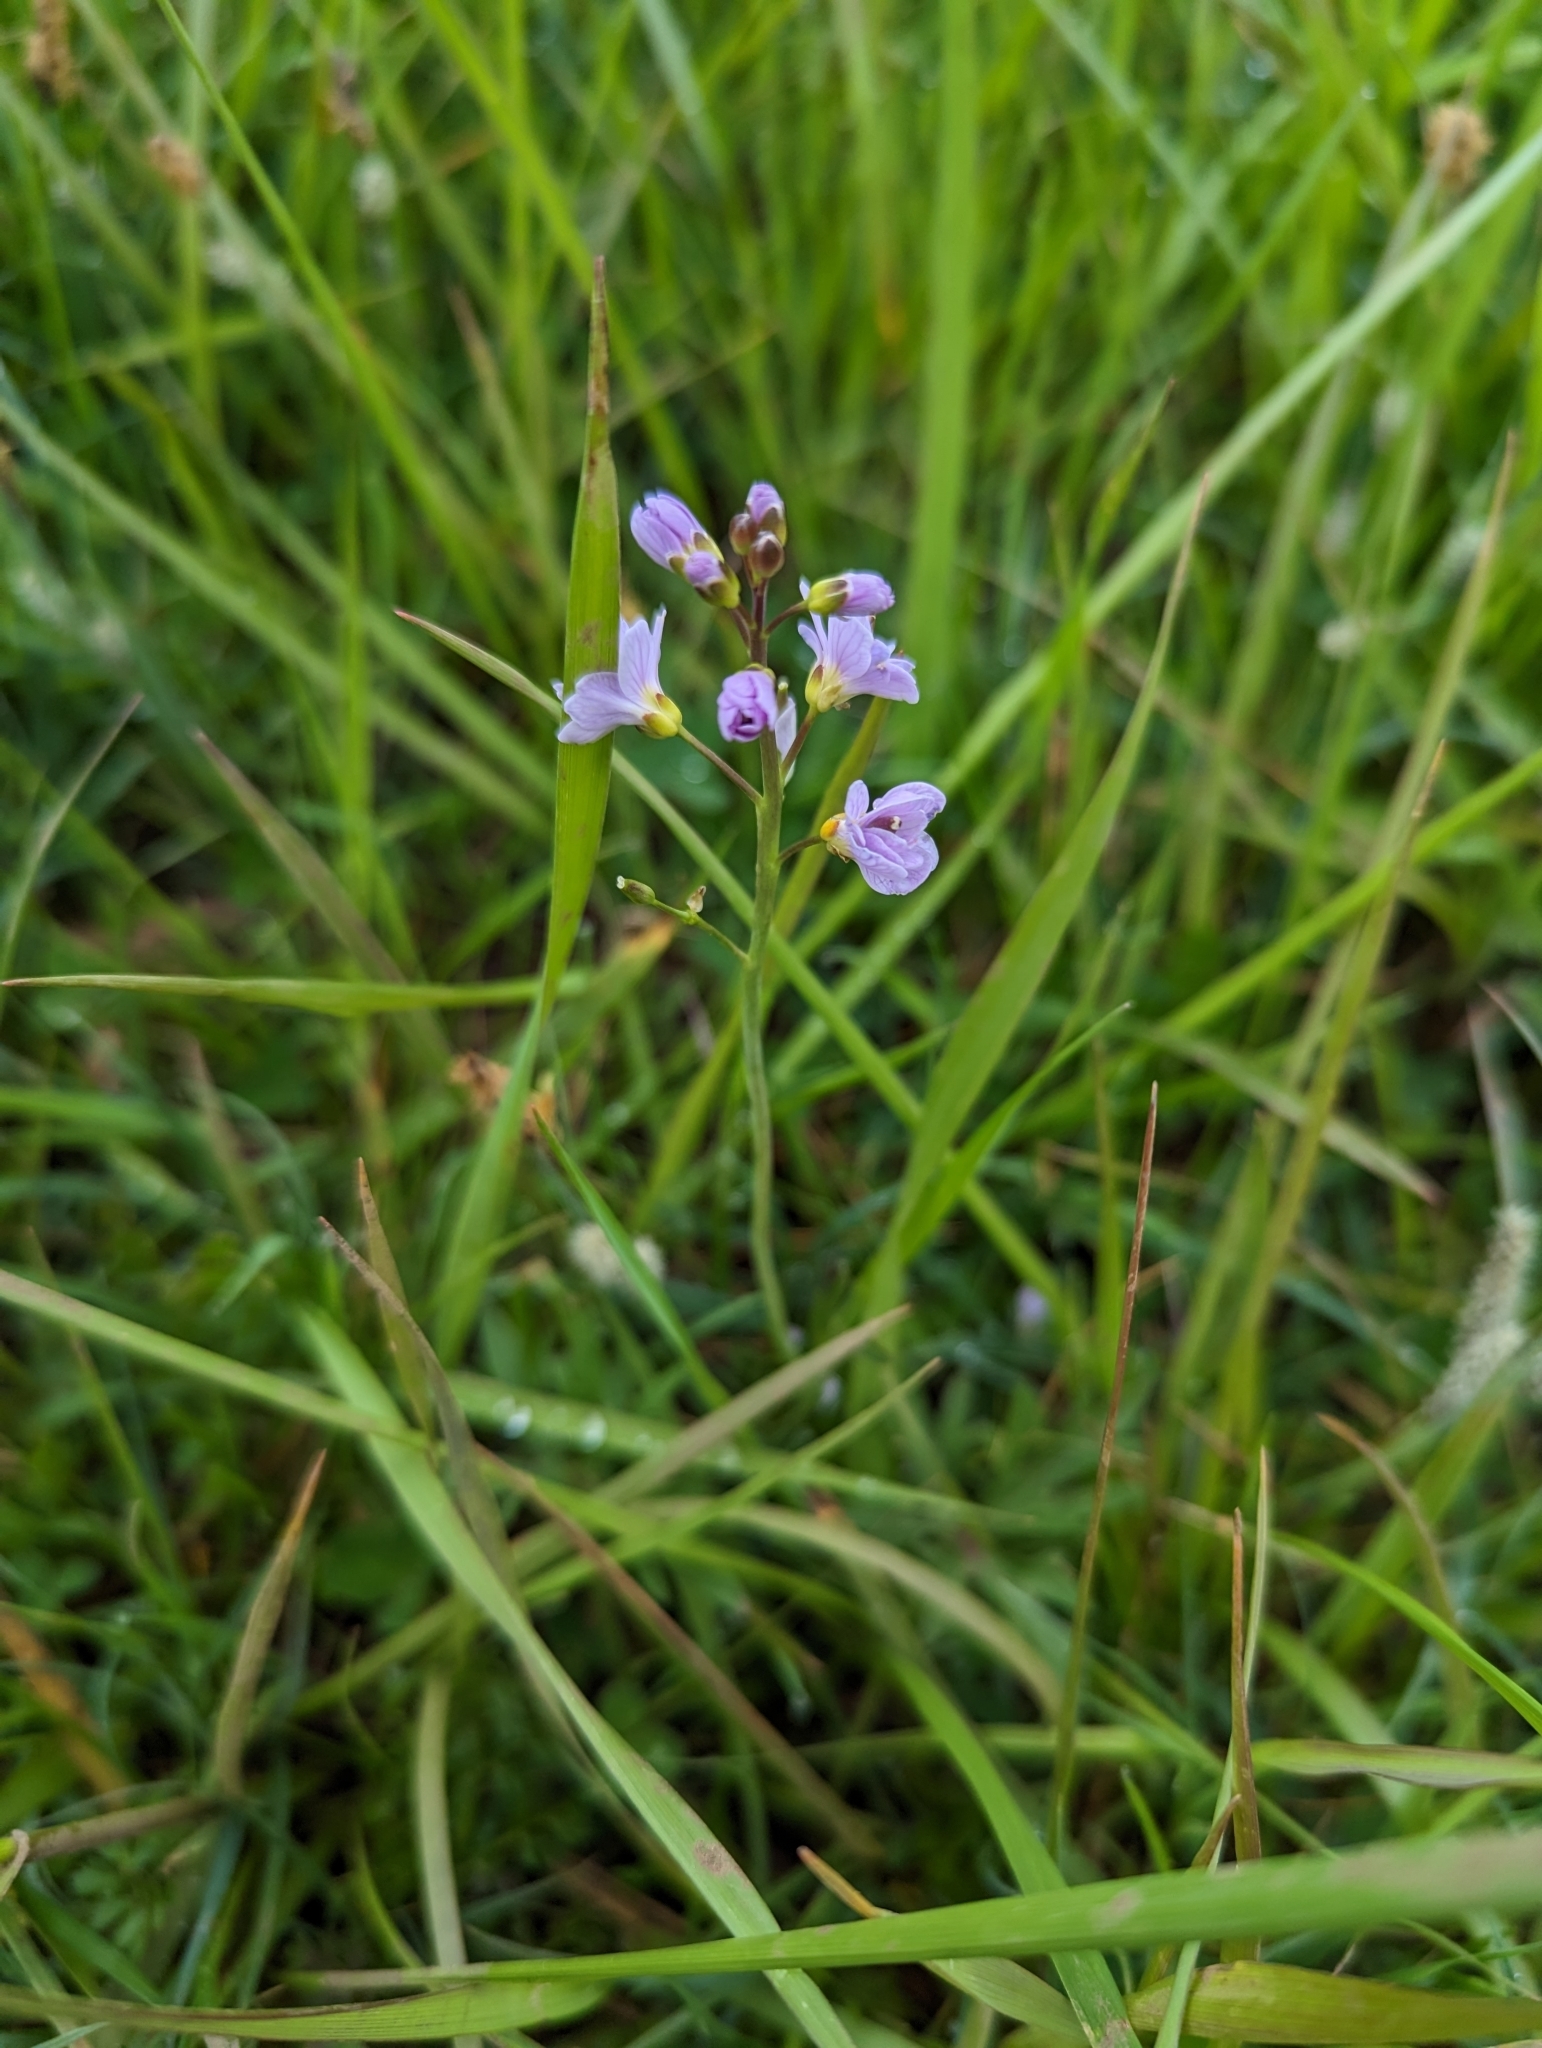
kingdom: Plantae
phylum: Tracheophyta
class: Magnoliopsida
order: Brassicales
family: Brassicaceae
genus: Cardamine
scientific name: Cardamine pratensis
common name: Cuckoo flower
